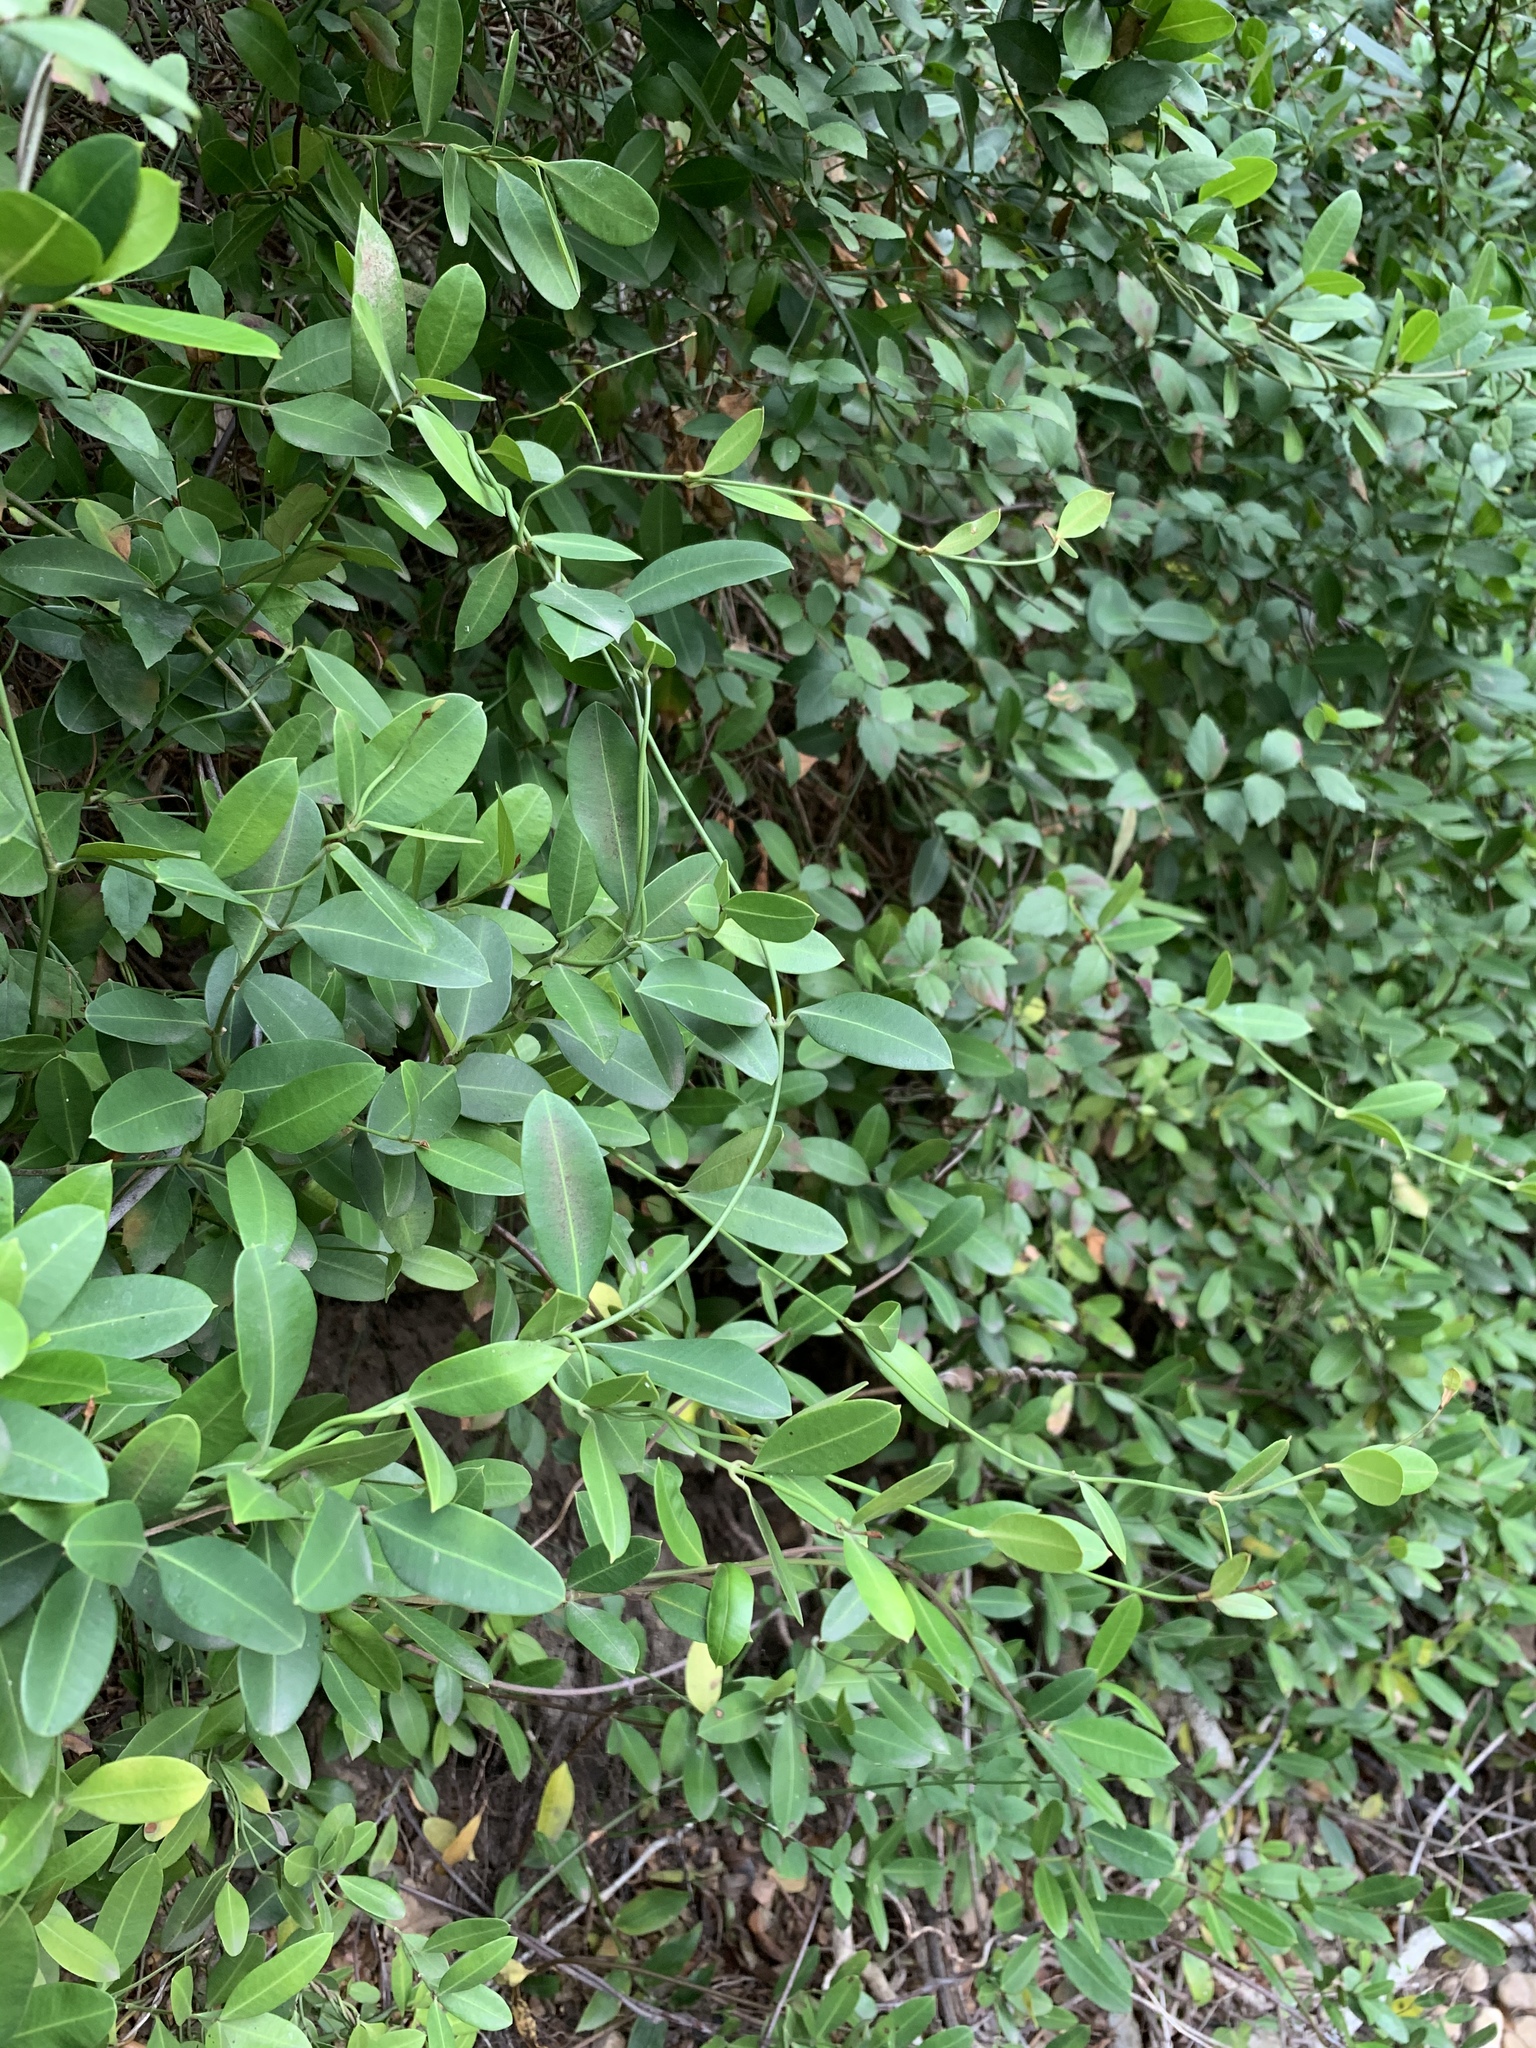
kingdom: Plantae
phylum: Tracheophyta
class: Magnoliopsida
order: Gentianales
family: Apocynaceae
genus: Secamone
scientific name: Secamone alpini
